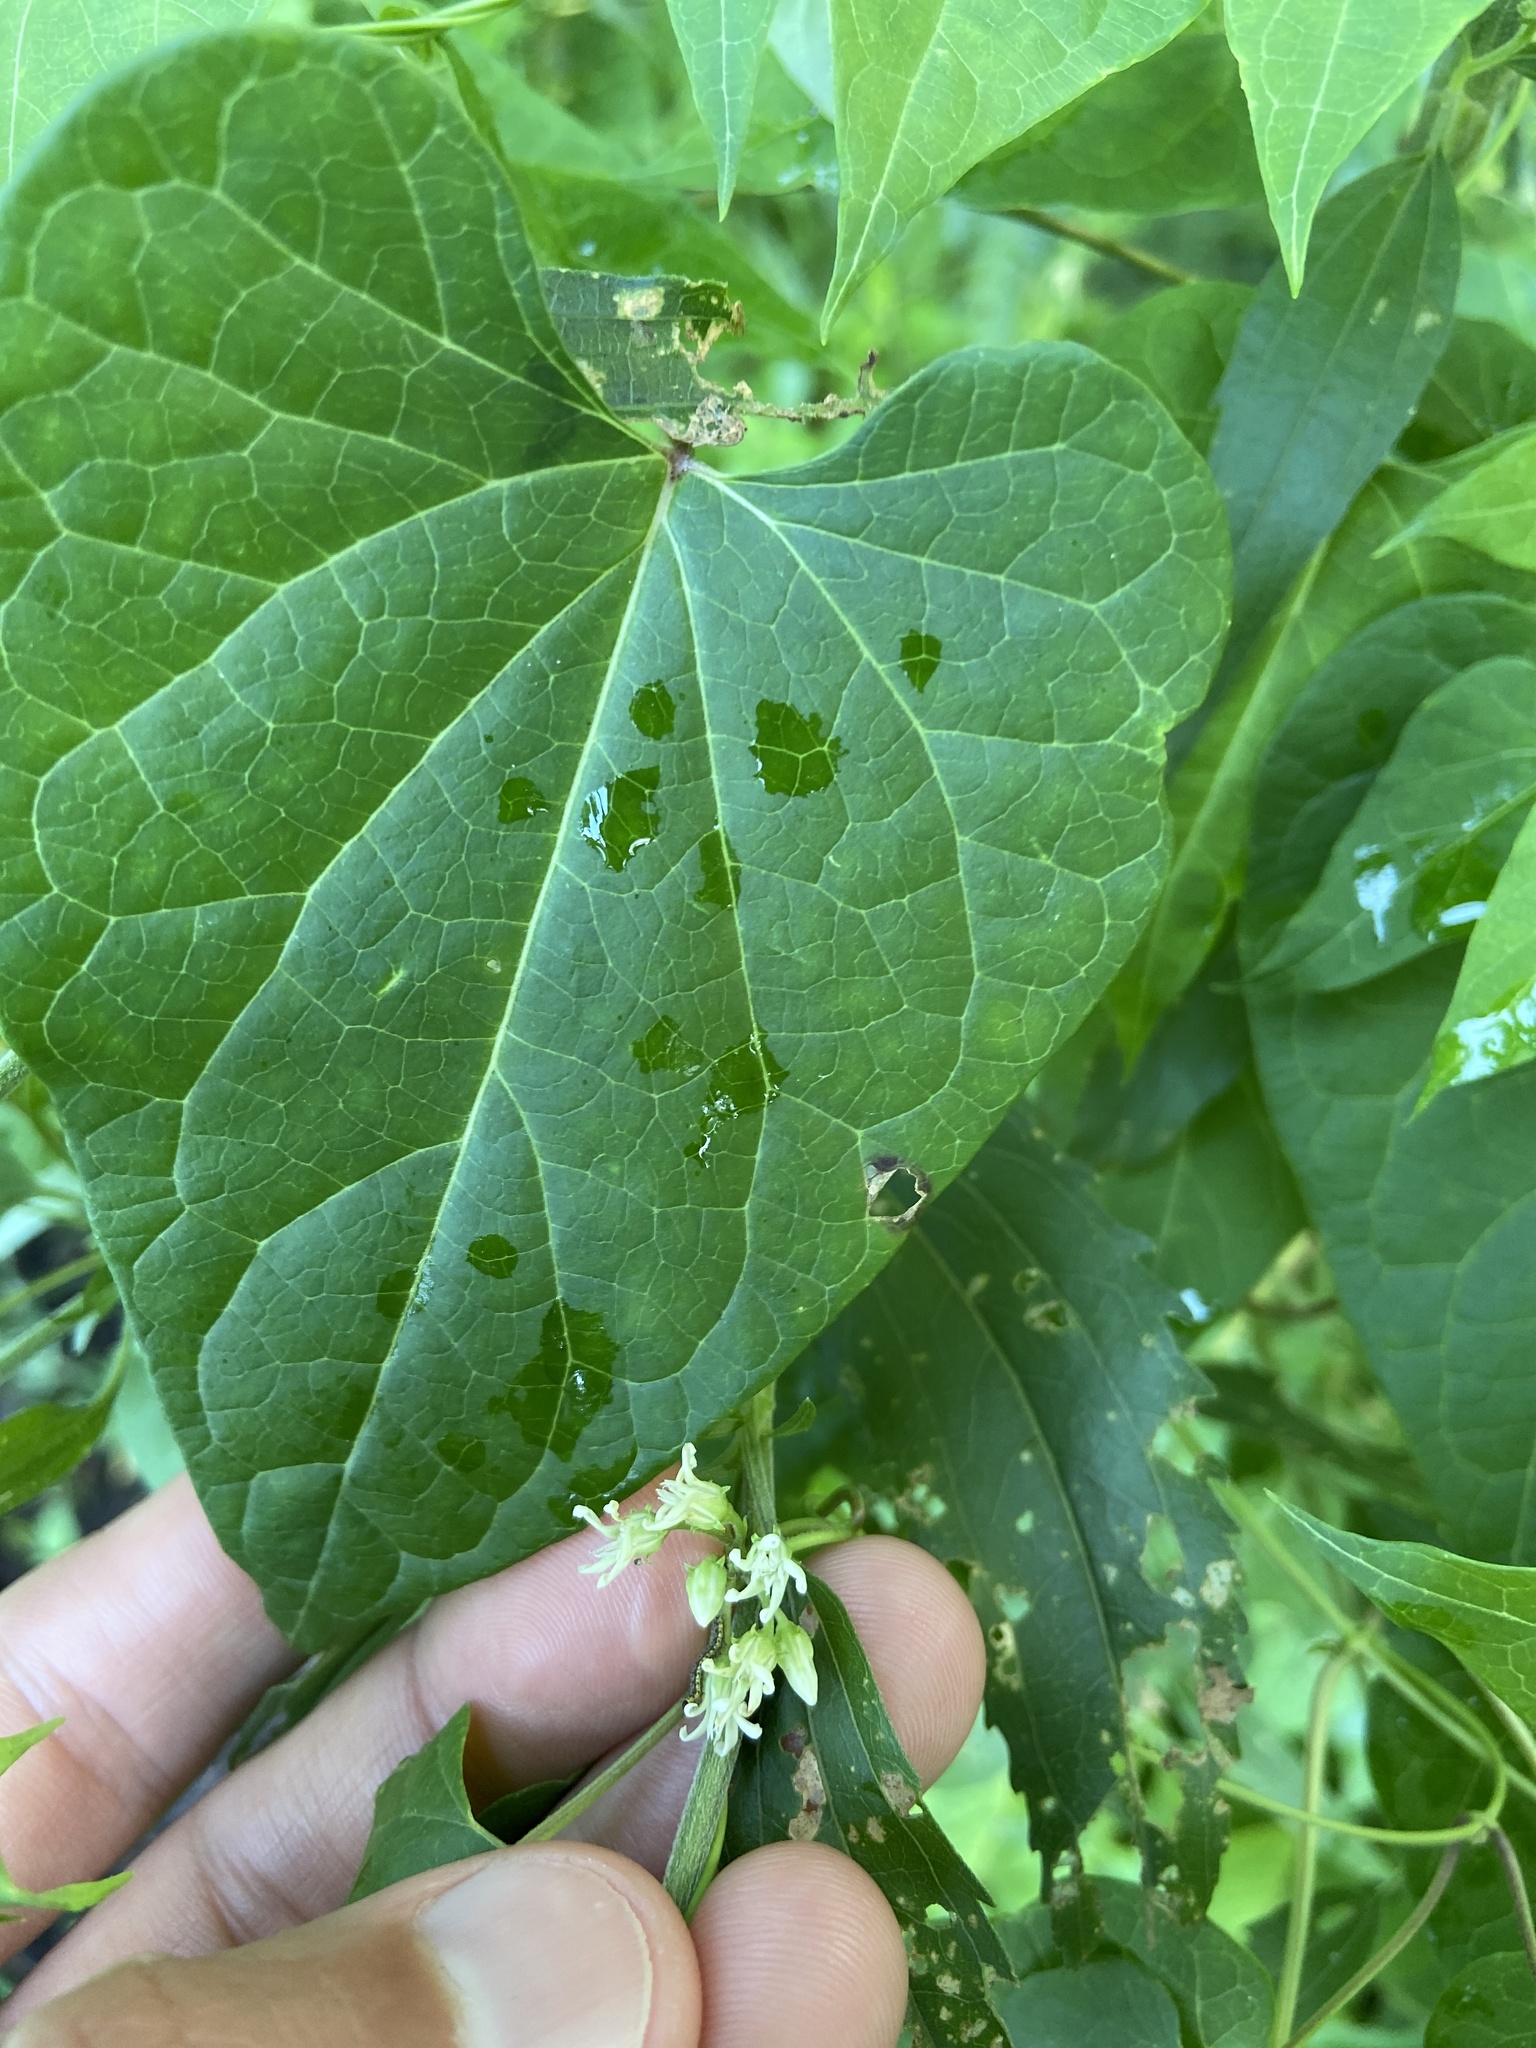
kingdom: Plantae
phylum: Tracheophyta
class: Magnoliopsida
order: Gentianales
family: Apocynaceae
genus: Cynanchum
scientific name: Cynanchum laeve
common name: Sandvine
